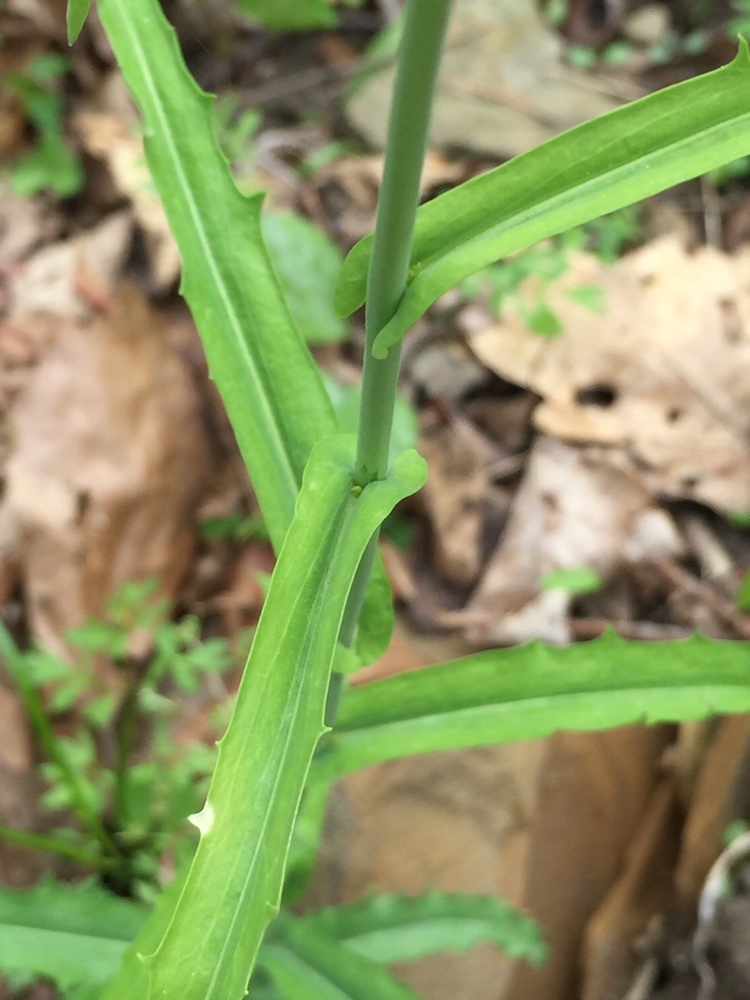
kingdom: Plantae
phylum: Tracheophyta
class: Magnoliopsida
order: Brassicales
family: Brassicaceae
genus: Borodinia
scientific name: Borodinia laevigata
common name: Smooth rockcress
